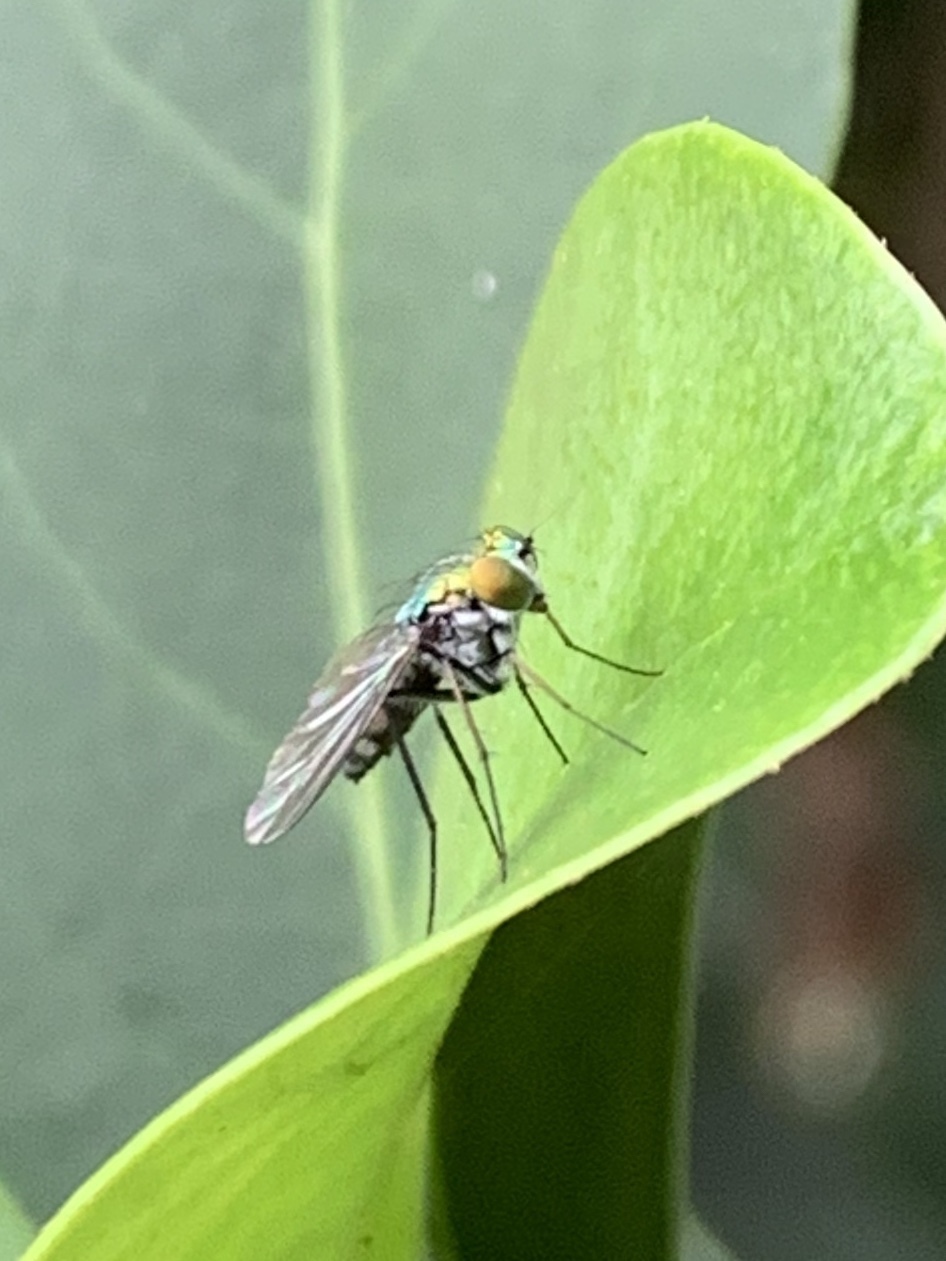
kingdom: Animalia
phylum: Arthropoda
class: Insecta
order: Diptera
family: Dolichopodidae
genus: Condylostylus
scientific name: Condylostylus longicornis
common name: Long-legged fly
